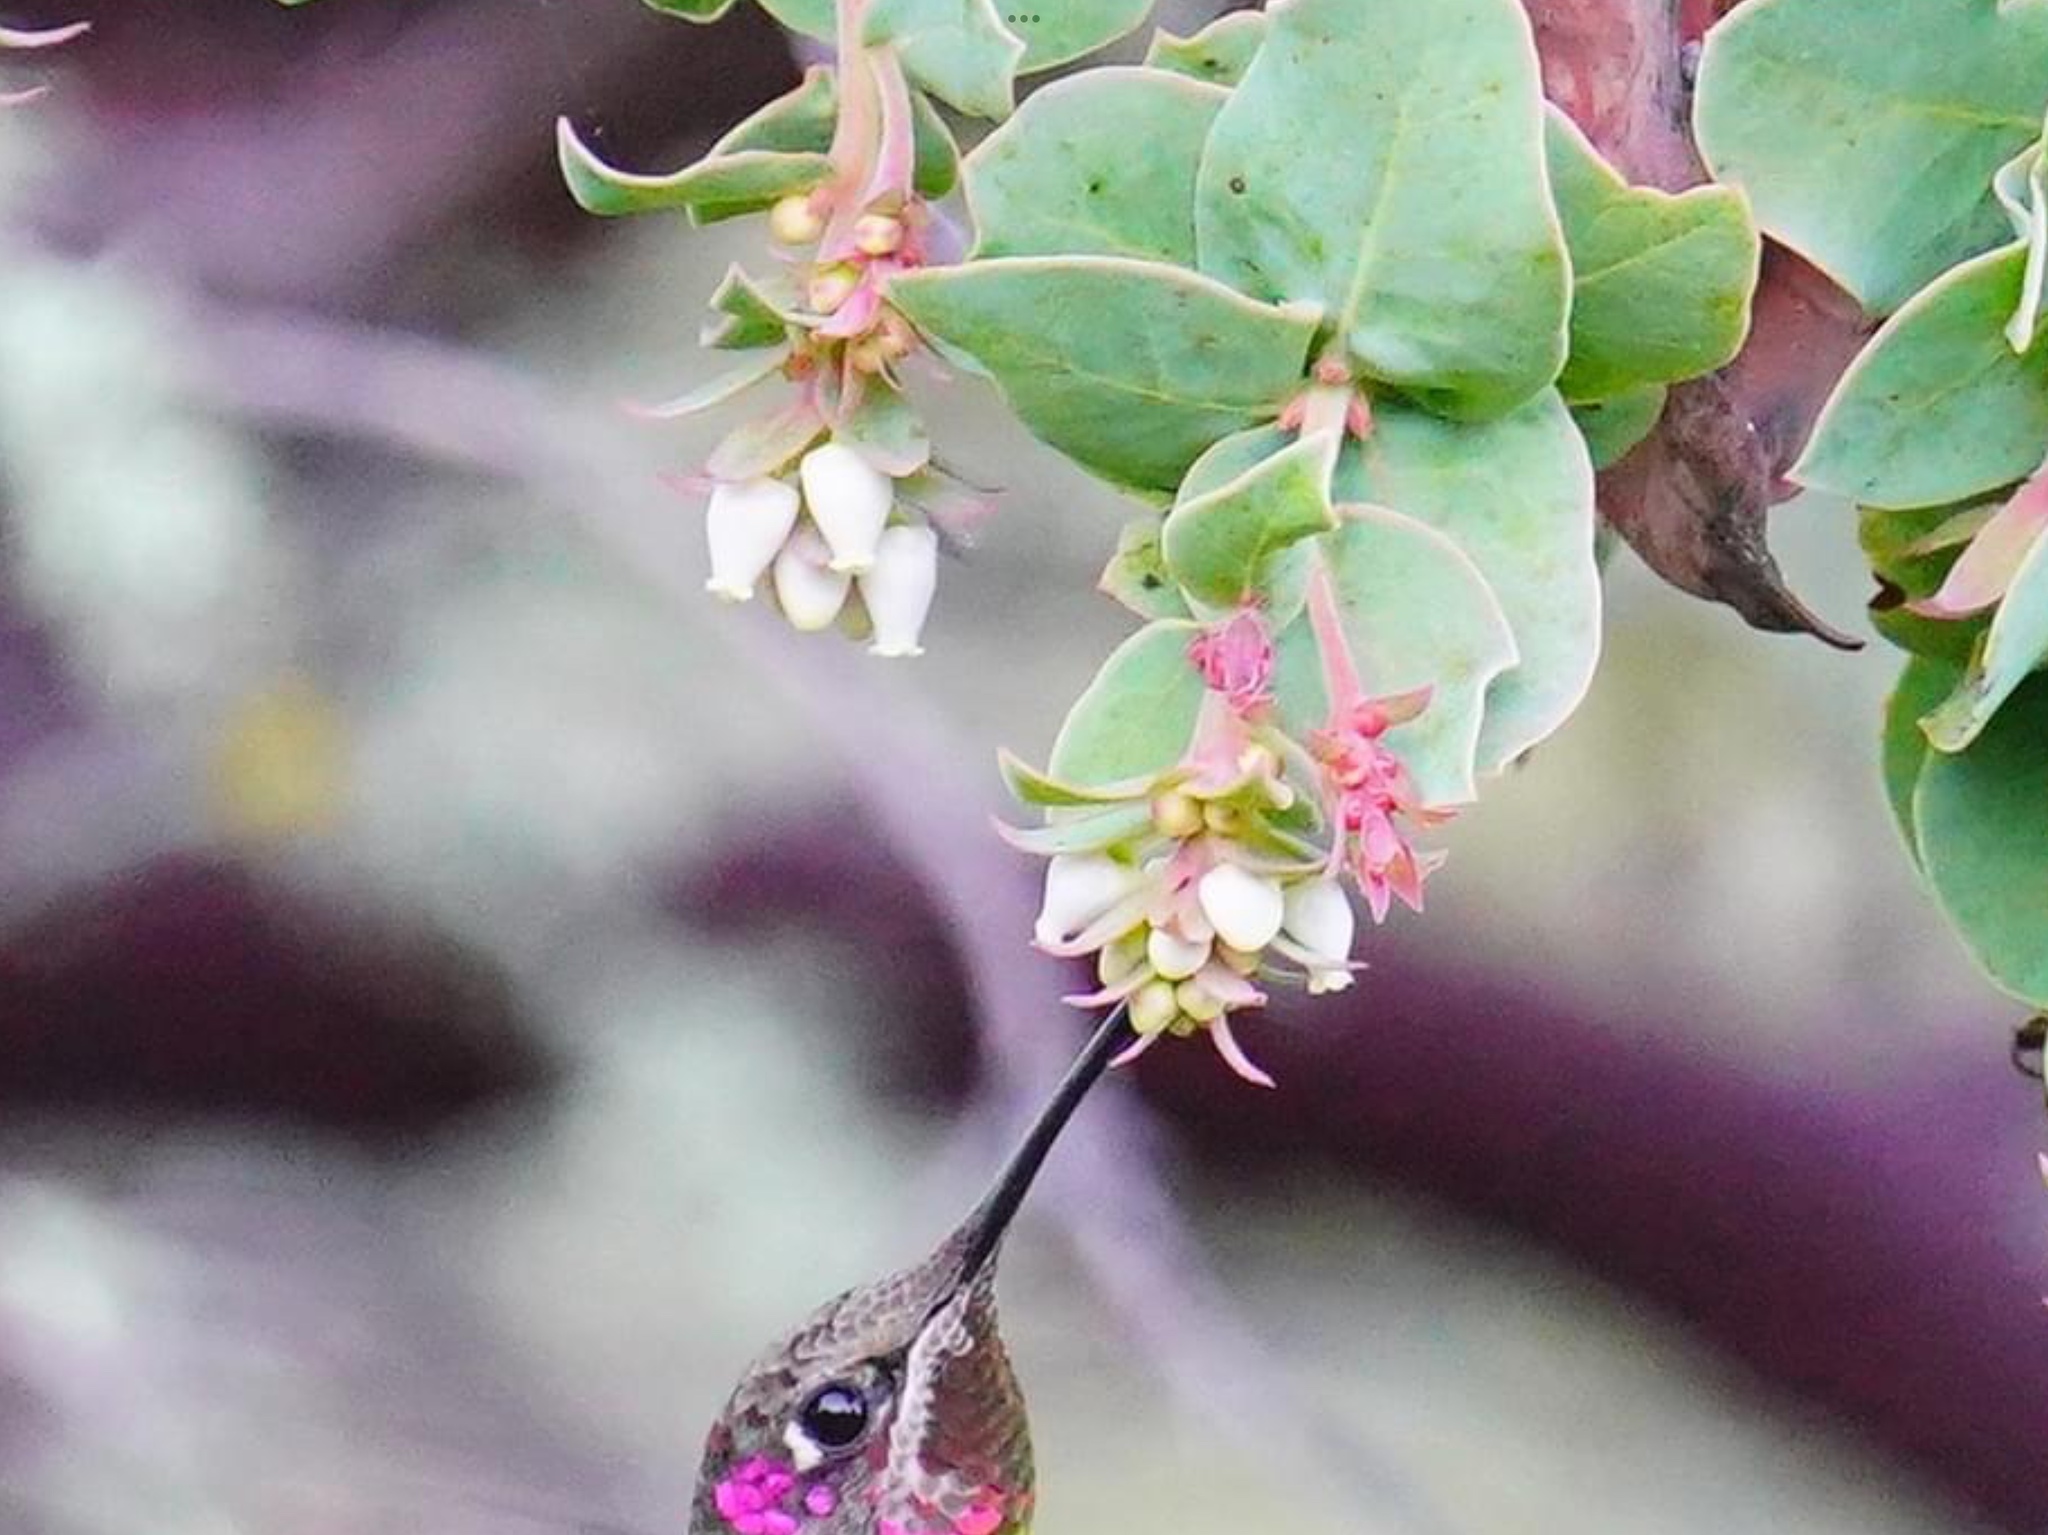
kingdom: Plantae
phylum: Tracheophyta
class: Magnoliopsida
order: Ericales
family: Ericaceae
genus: Arctostaphylos
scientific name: Arctostaphylos pallida
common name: Pallid manzanita
